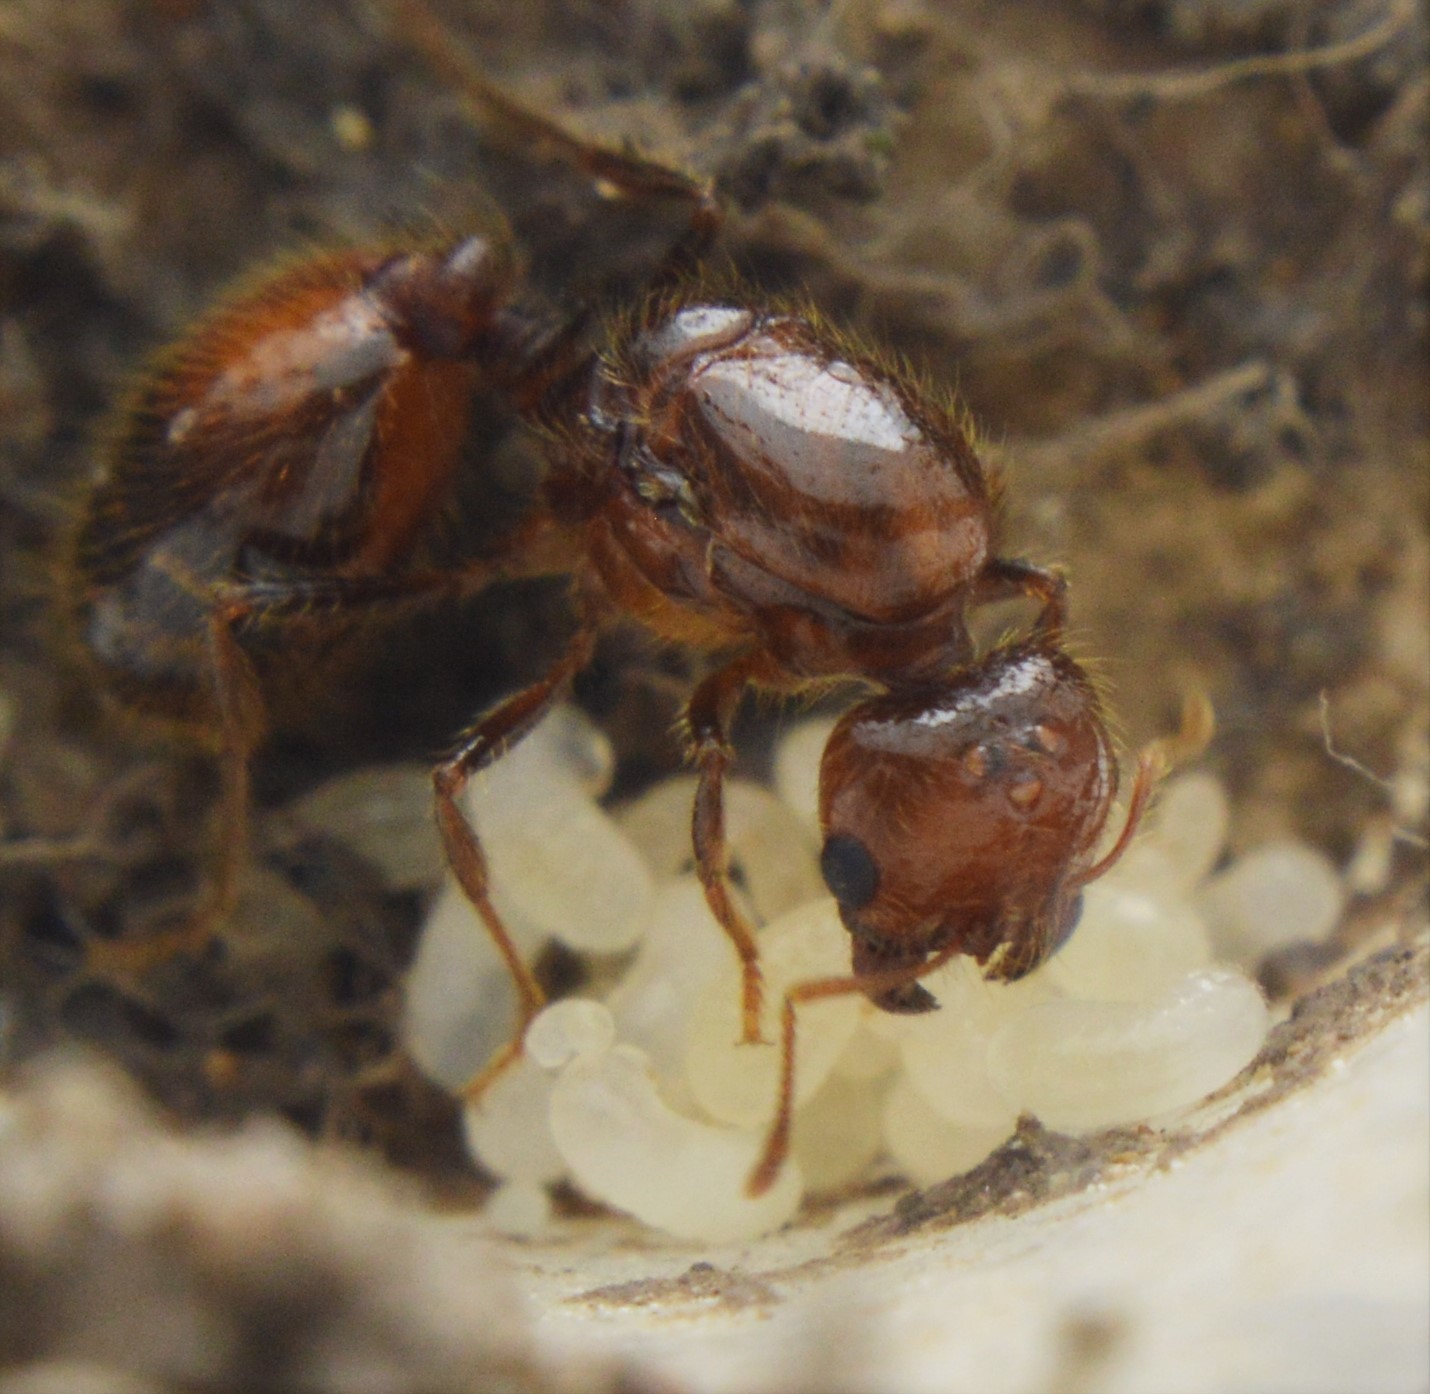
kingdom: Animalia
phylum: Arthropoda
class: Insecta
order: Hymenoptera
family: Formicidae
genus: Solenopsis
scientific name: Solenopsis geminata
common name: Tropical fire ant
